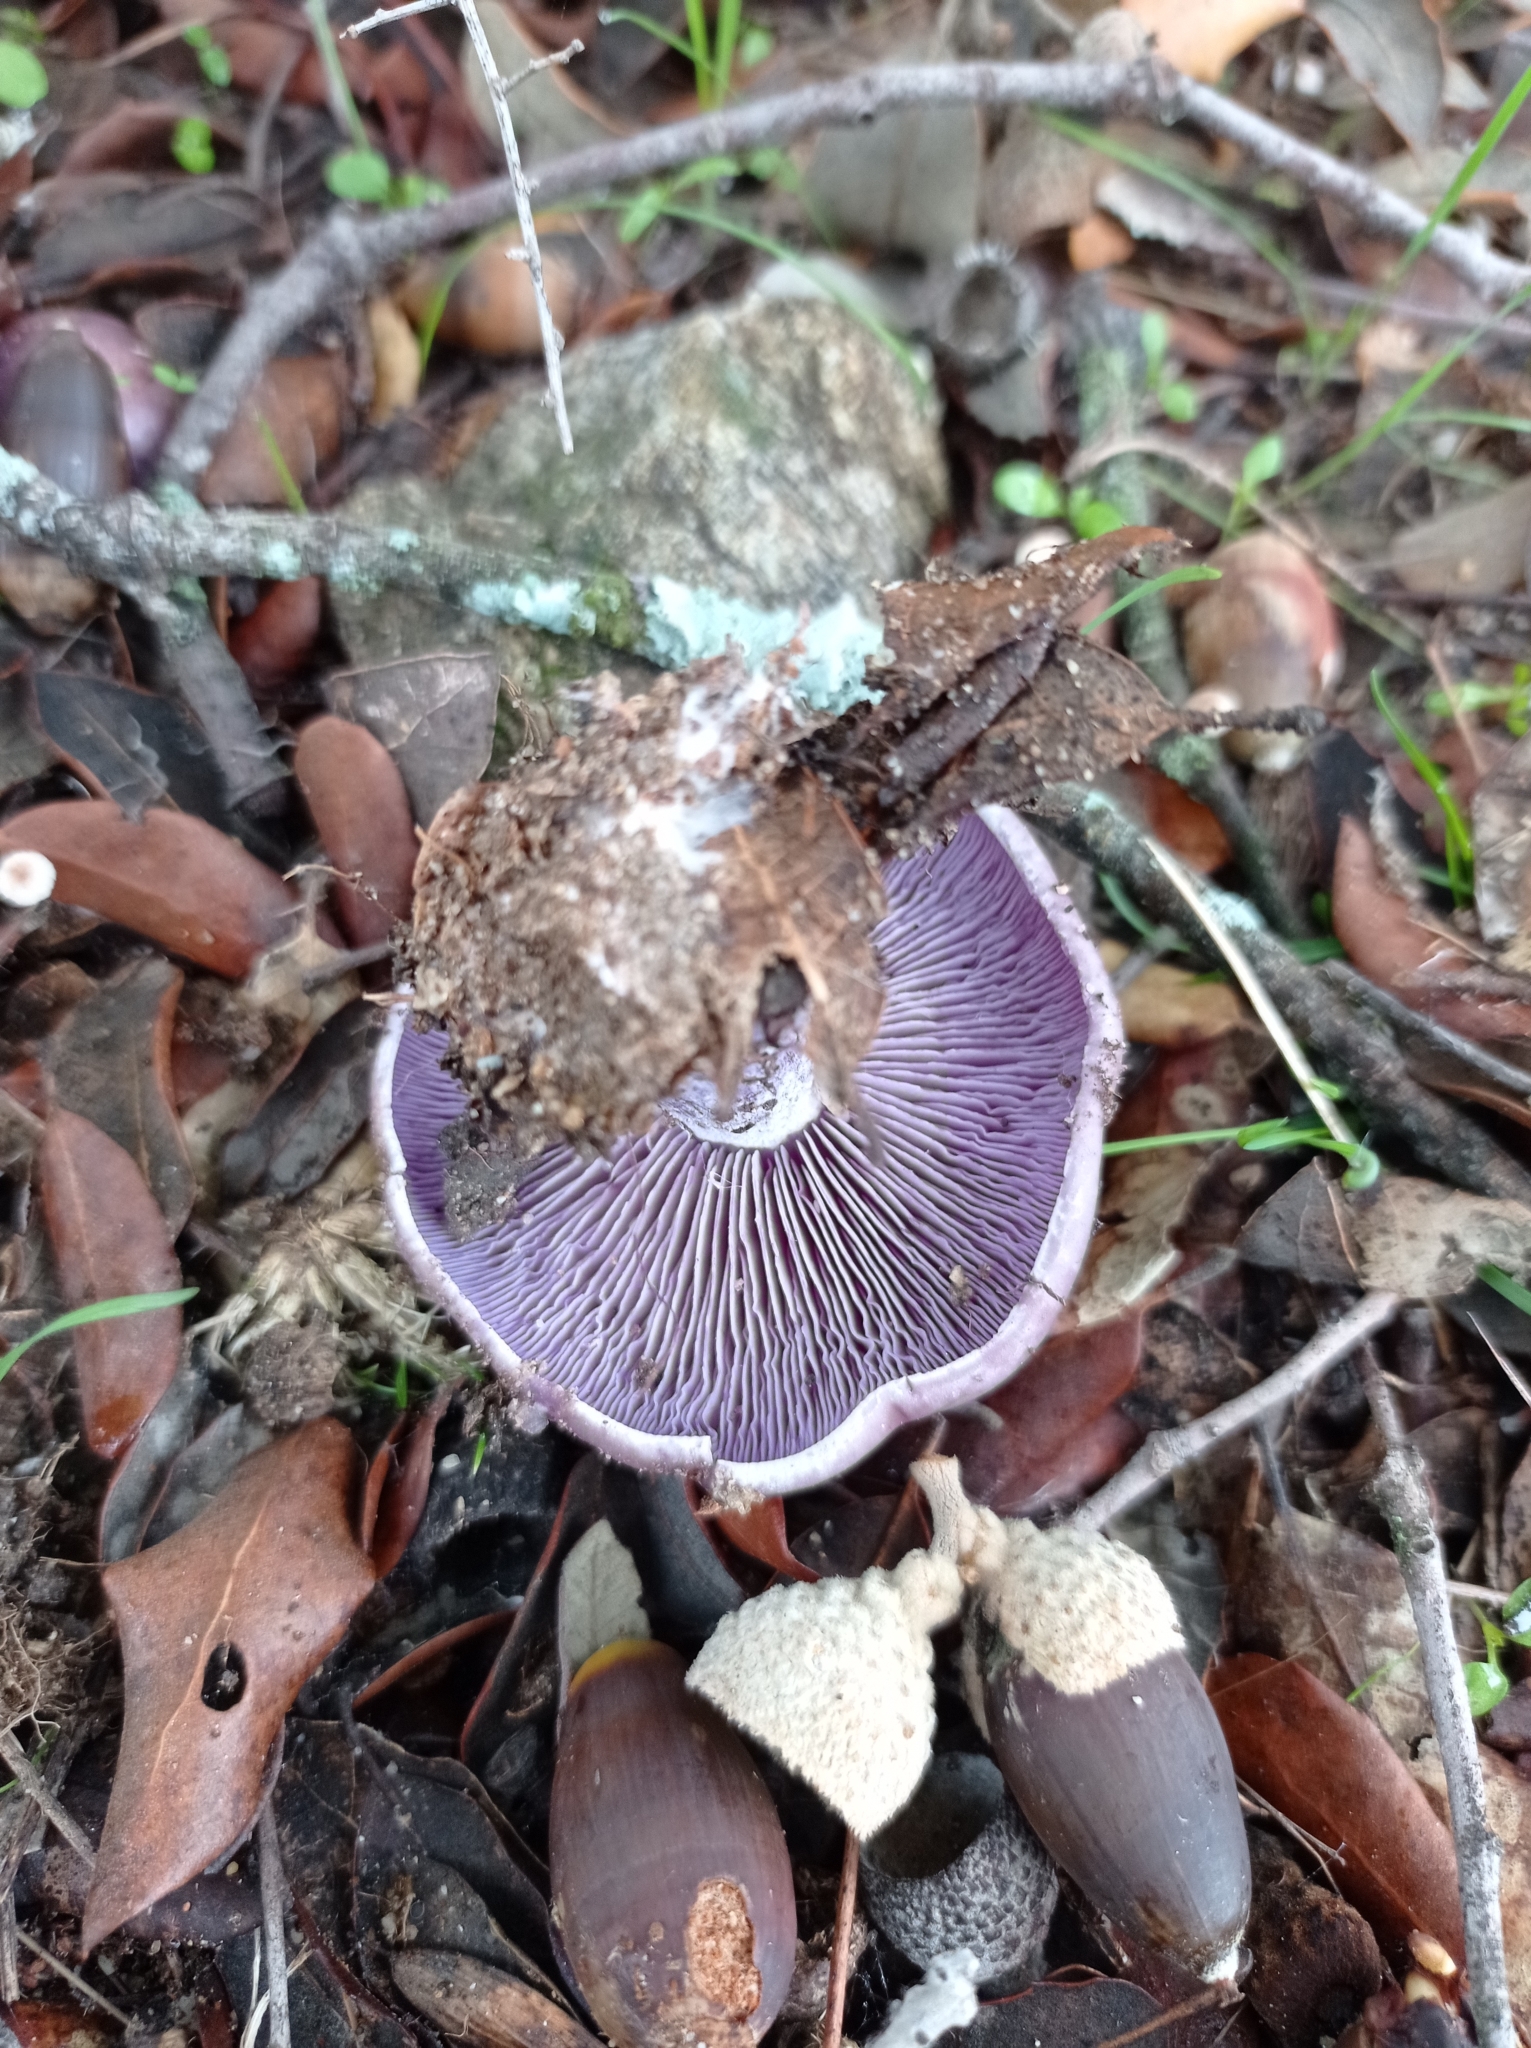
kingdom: Fungi
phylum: Basidiomycota
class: Agaricomycetes
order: Agaricales
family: Tricholomataceae
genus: Collybia
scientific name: Collybia
